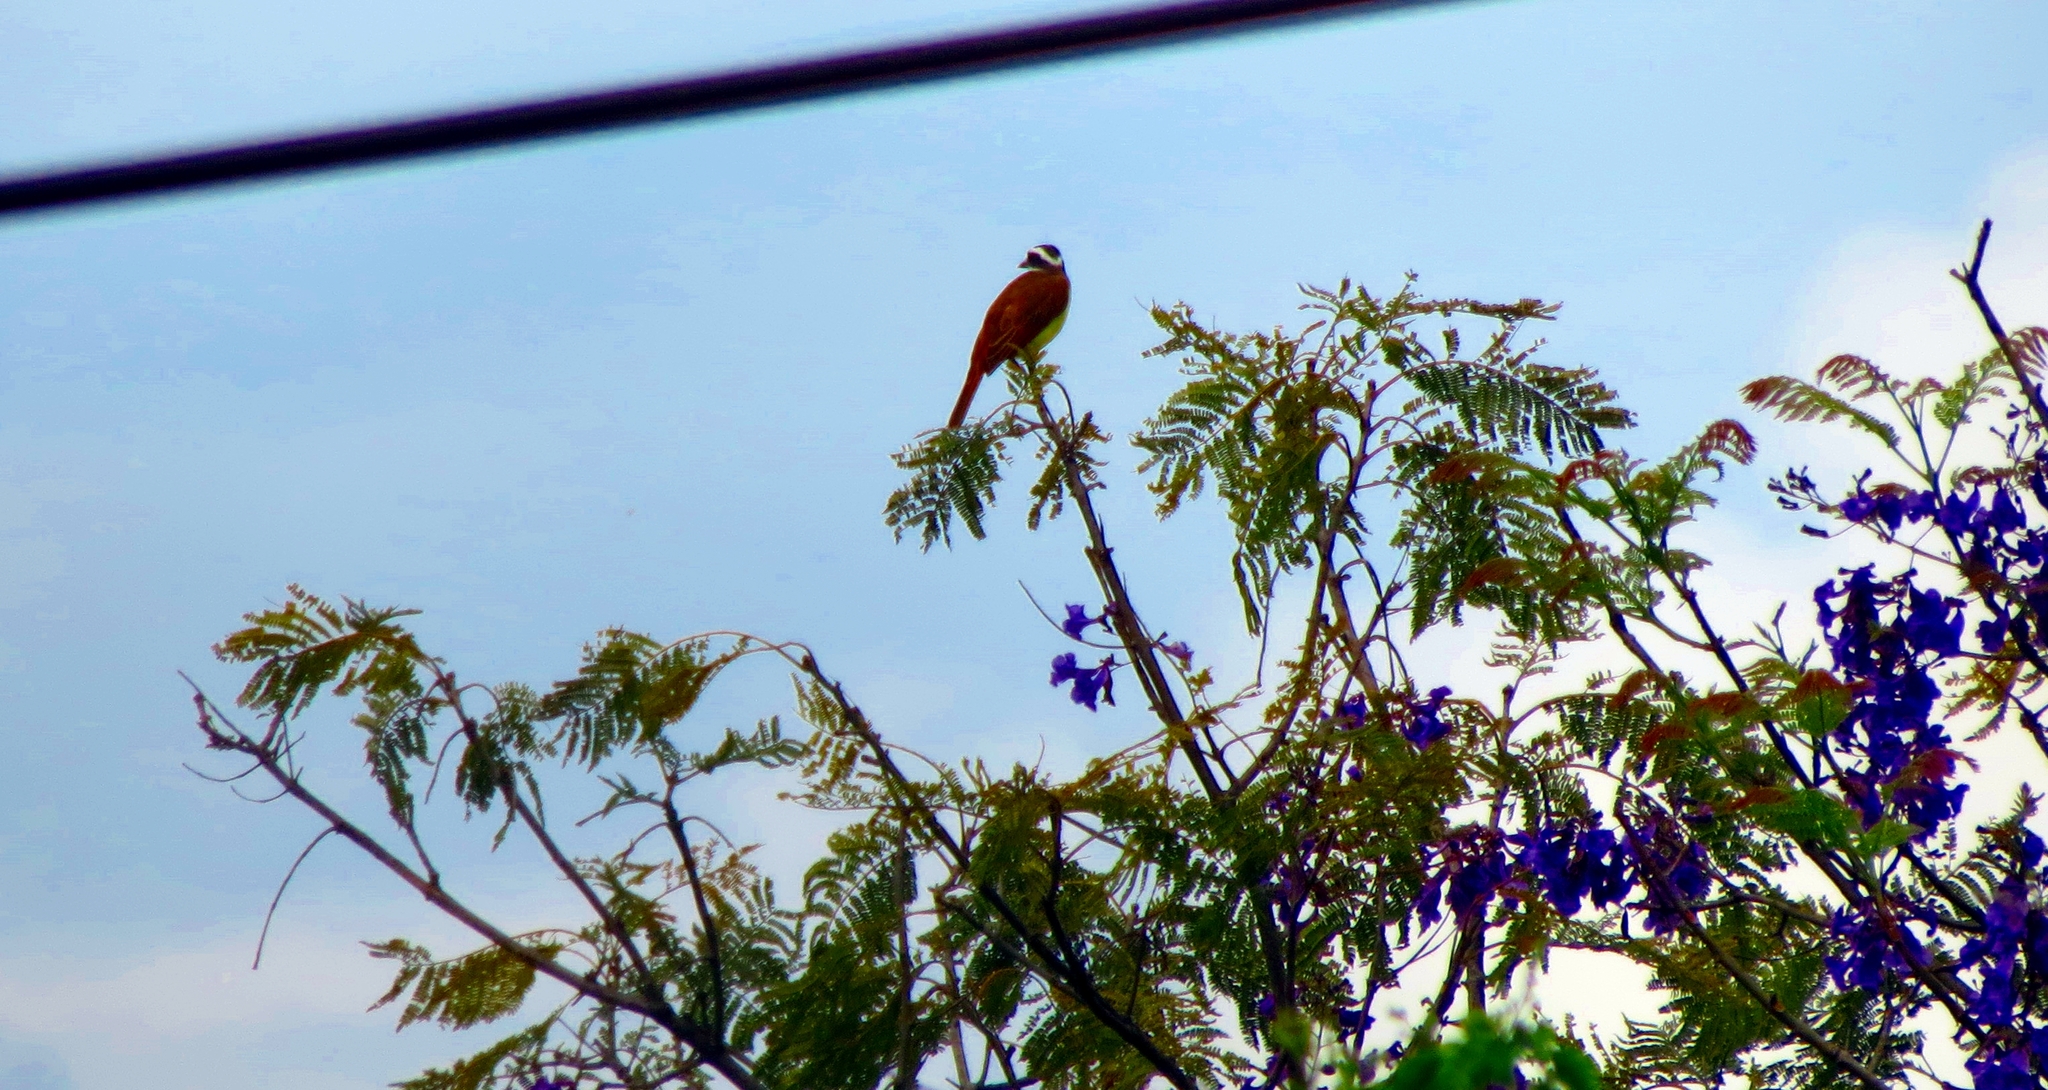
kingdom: Animalia
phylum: Chordata
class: Aves
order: Passeriformes
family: Tyrannidae
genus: Pitangus
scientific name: Pitangus sulphuratus
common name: Great kiskadee
